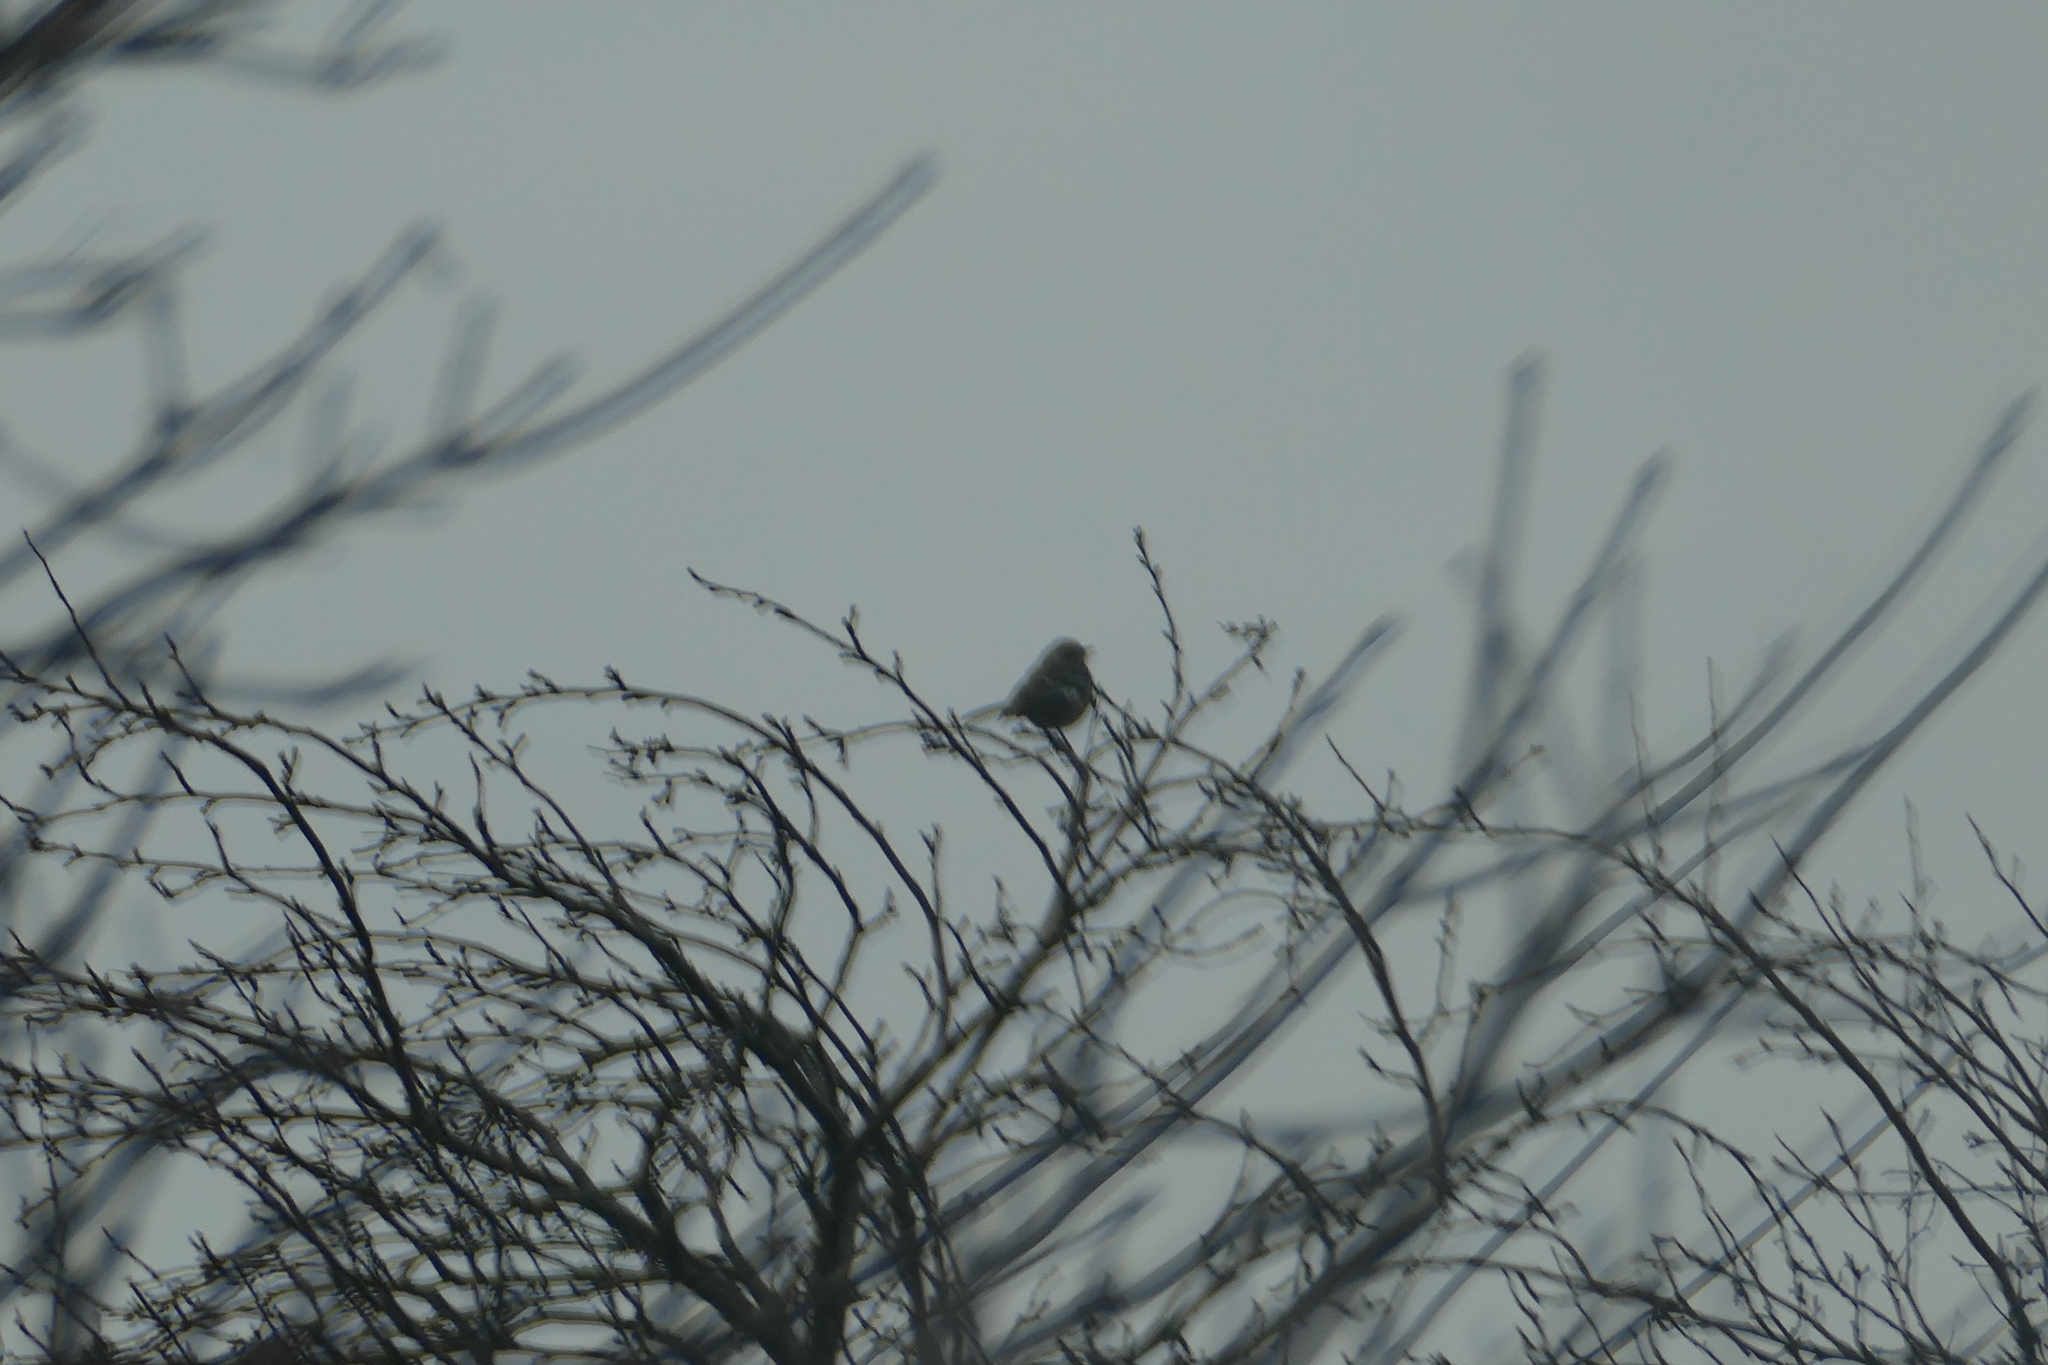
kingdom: Animalia
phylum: Chordata
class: Aves
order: Passeriformes
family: Mimidae
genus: Mimus
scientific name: Mimus polyglottos
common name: Northern mockingbird
